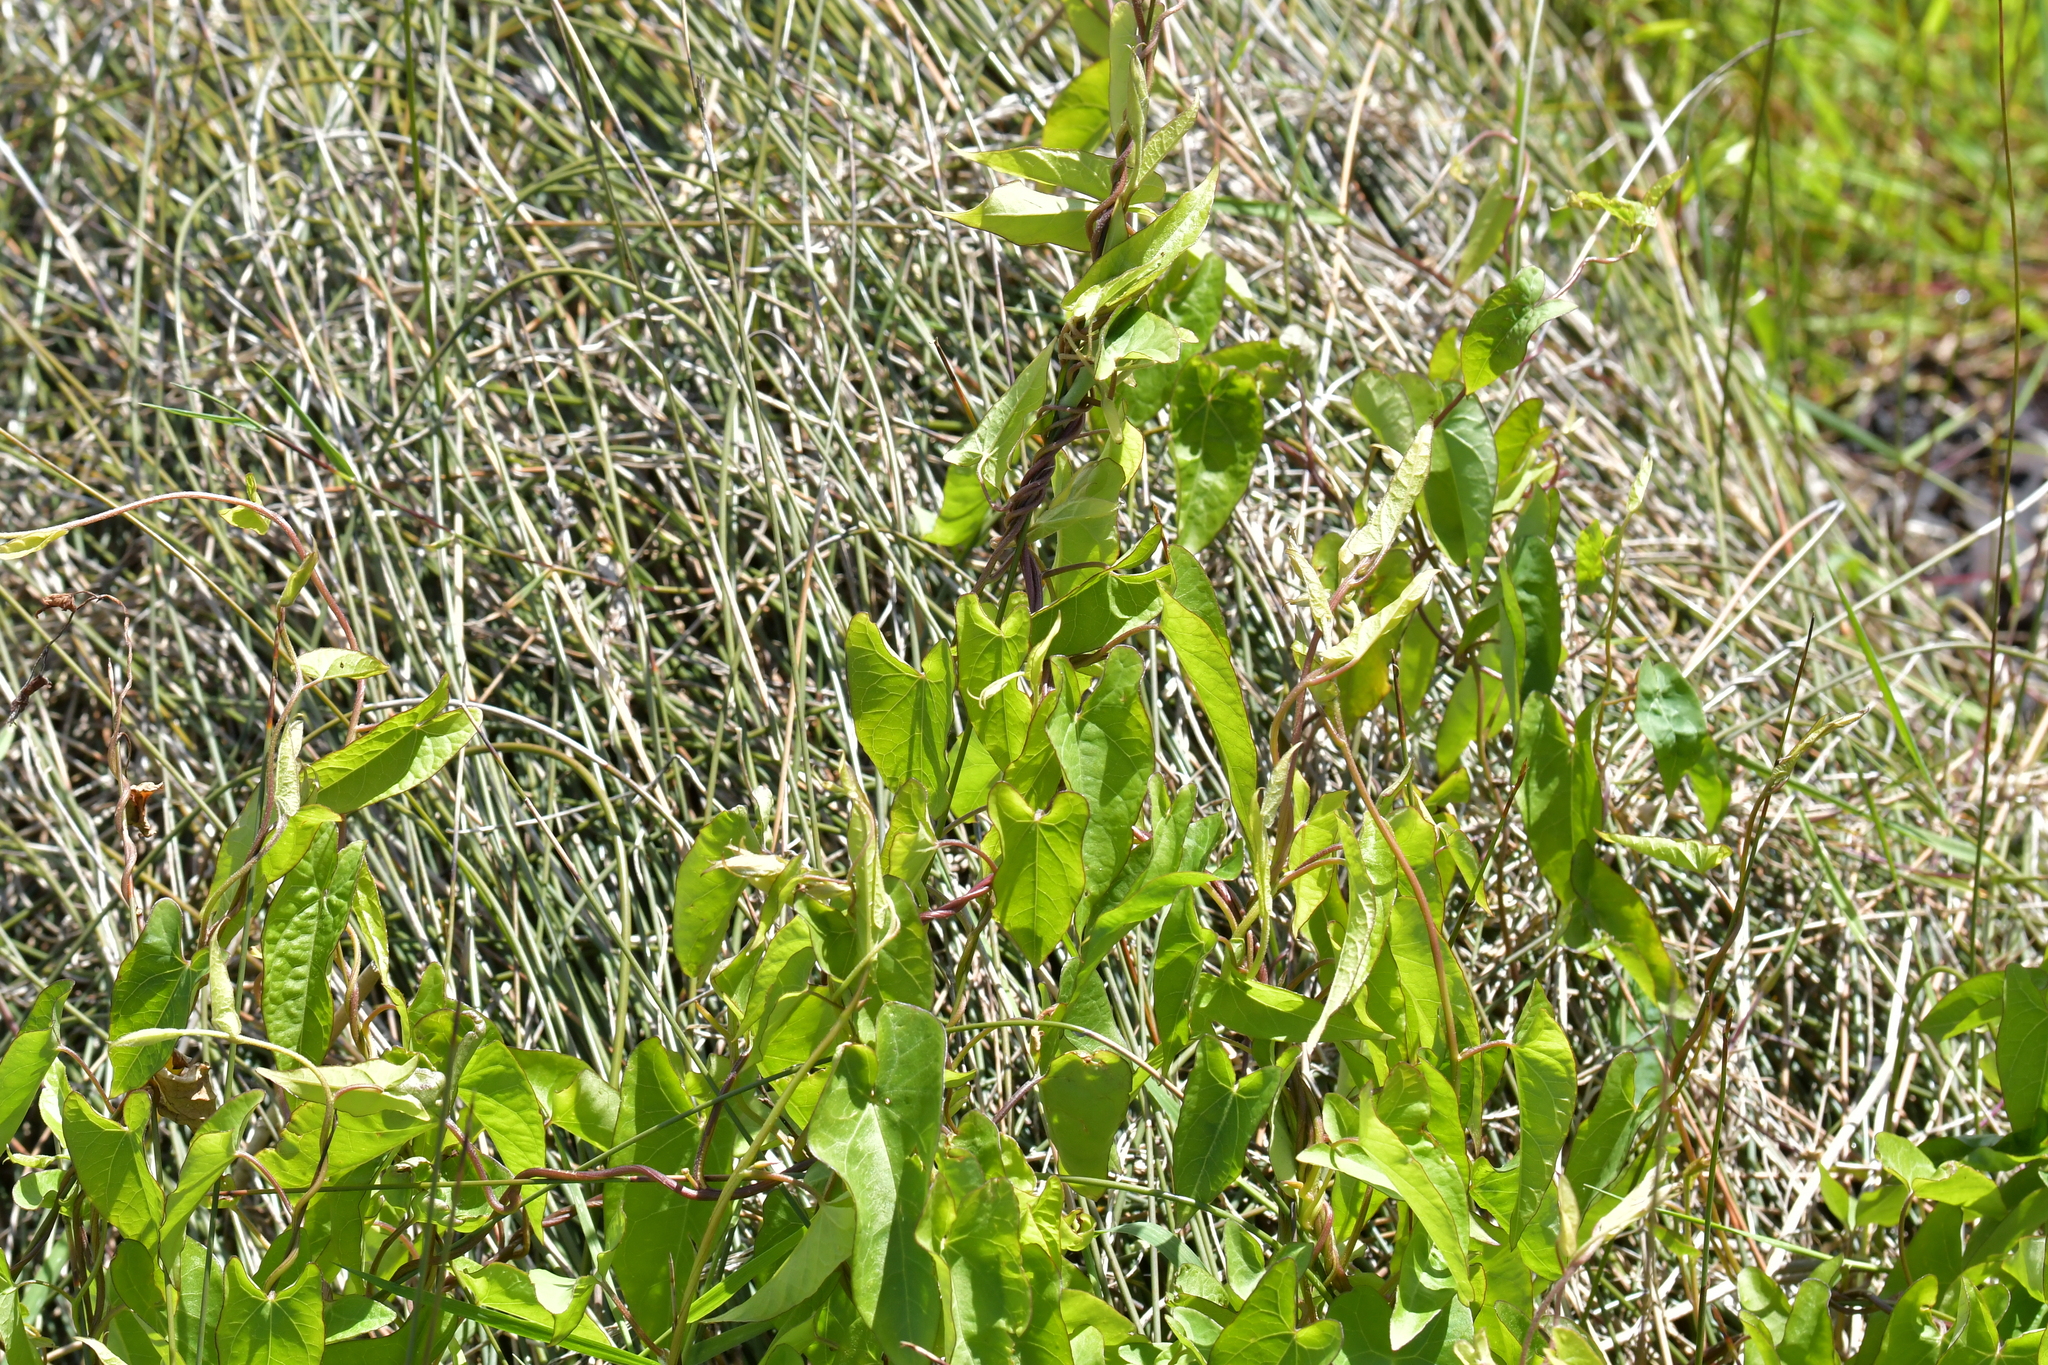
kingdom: Plantae
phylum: Tracheophyta
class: Magnoliopsida
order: Solanales
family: Convolvulaceae
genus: Calystegia
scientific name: Calystegia sepium
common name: Hedge bindweed
